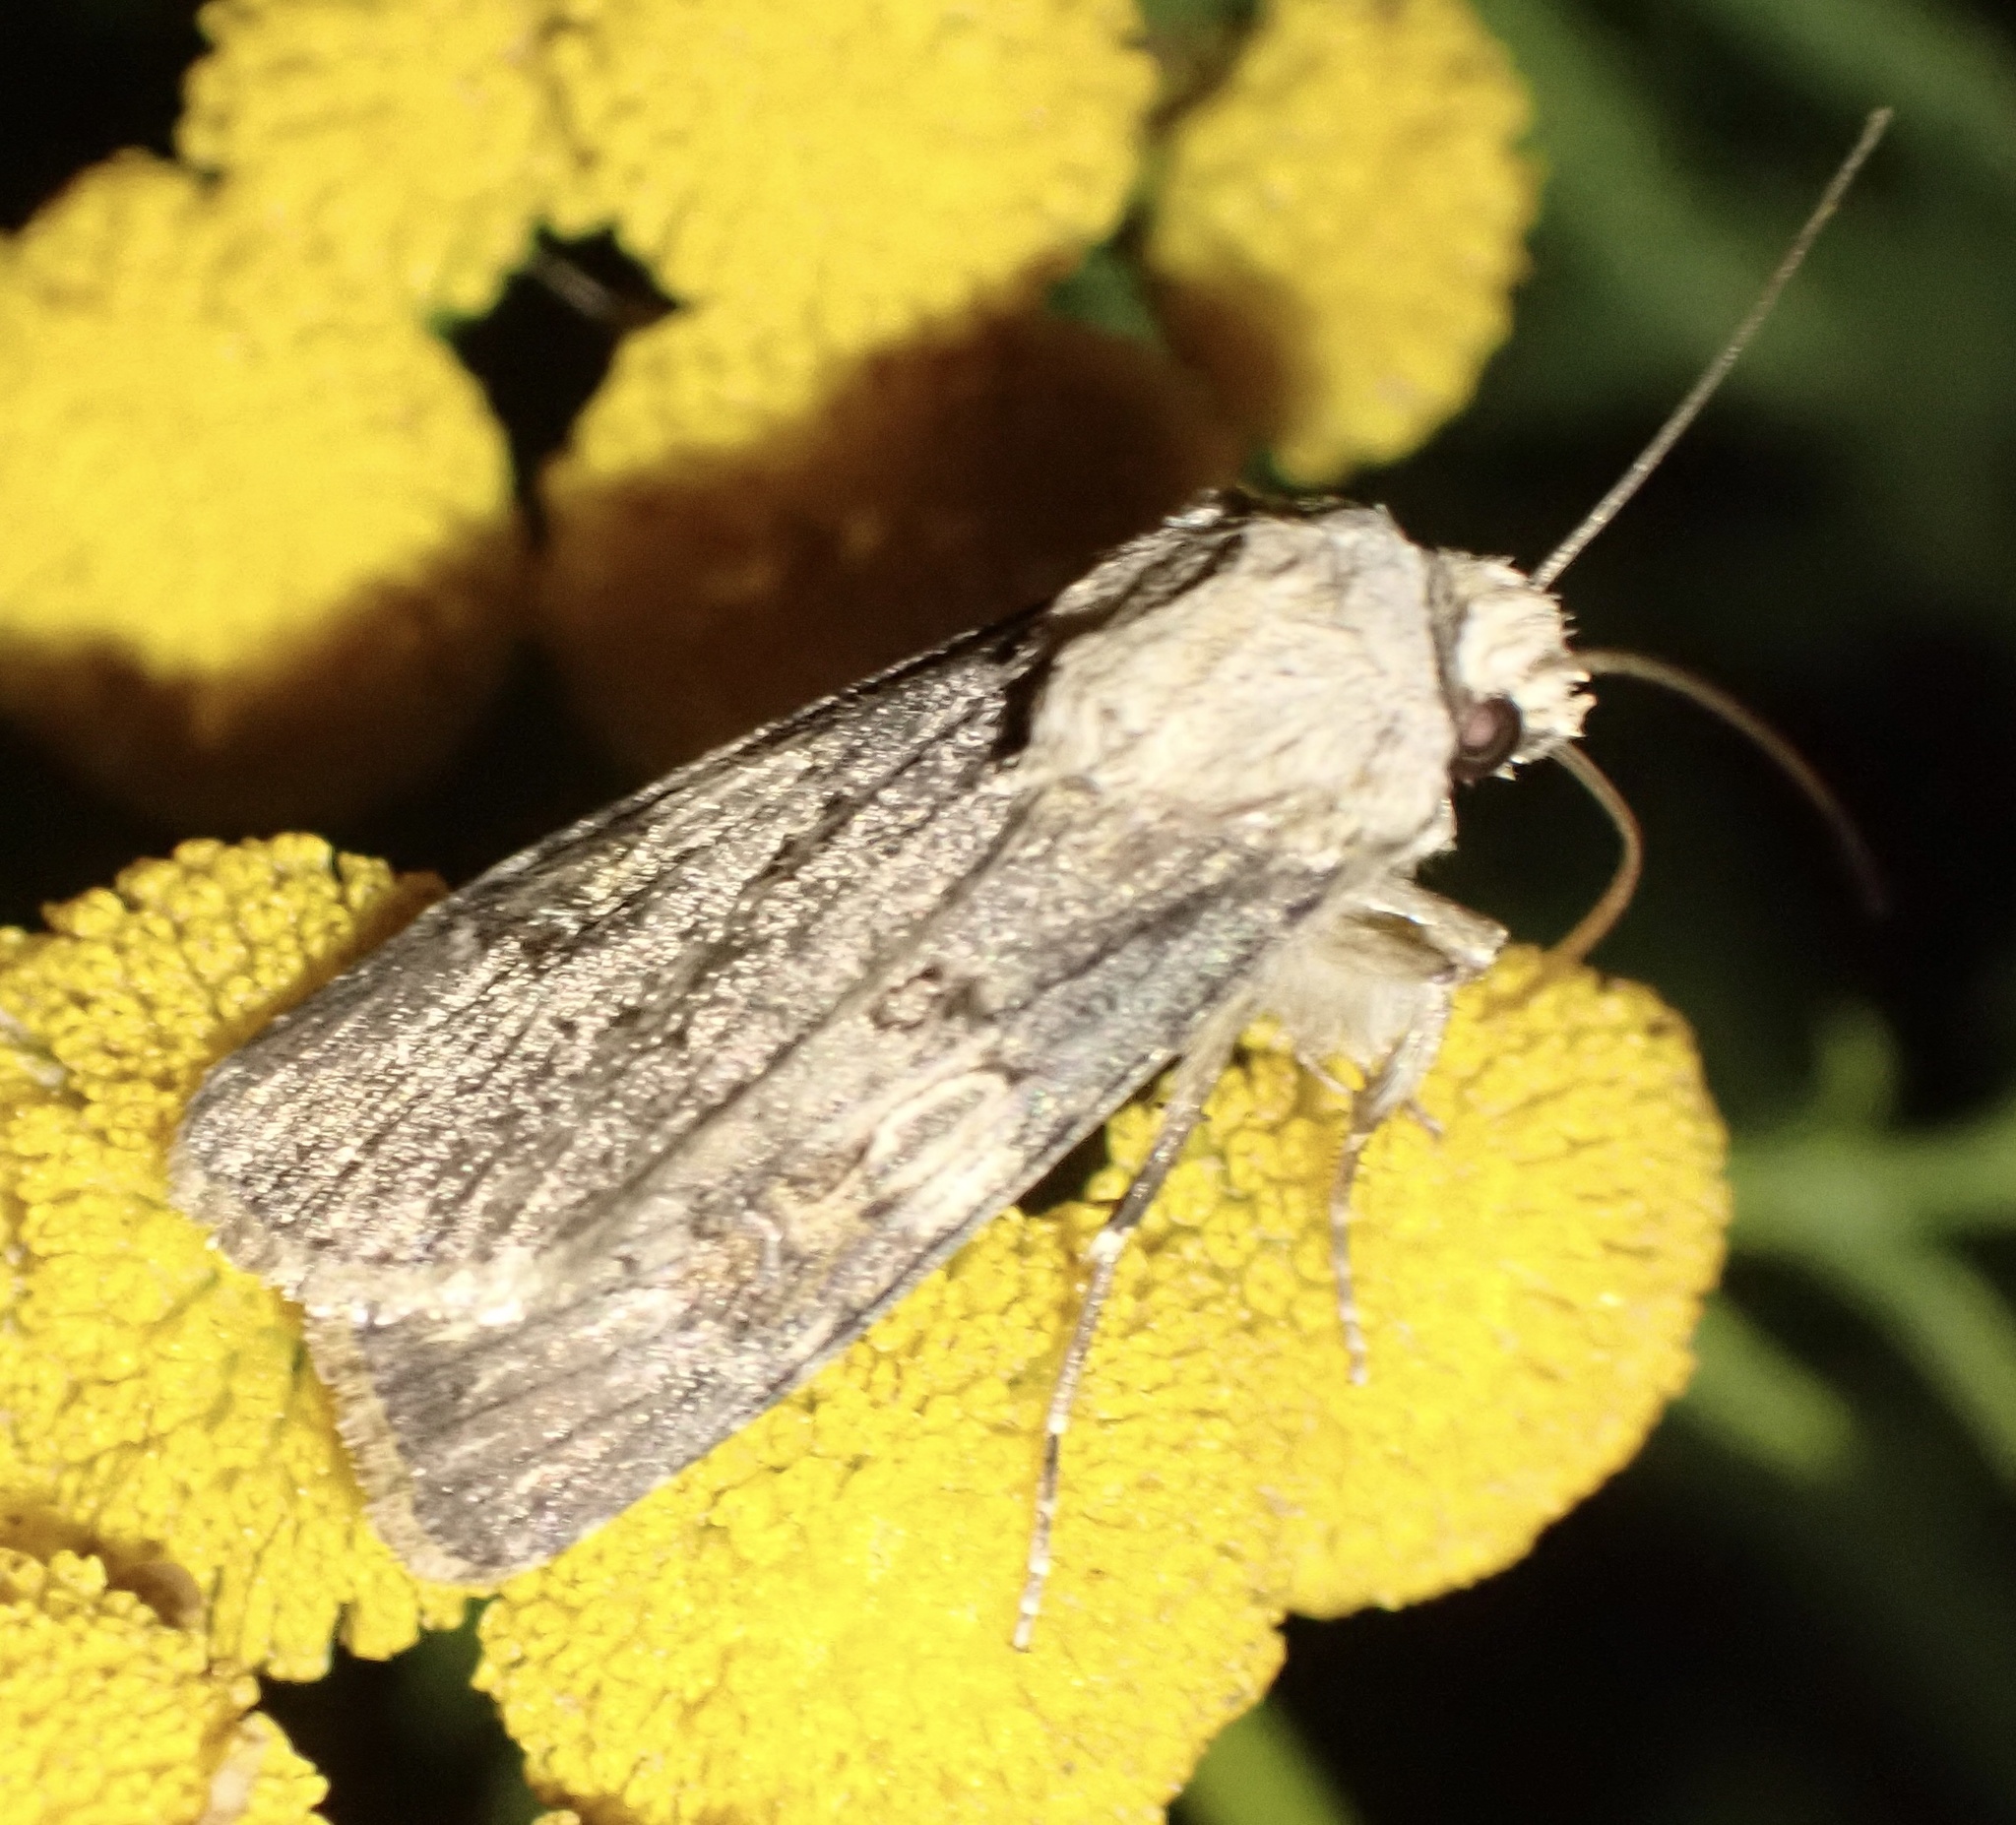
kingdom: Animalia
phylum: Arthropoda
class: Insecta
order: Lepidoptera
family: Noctuidae
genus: Agrotis
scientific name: Agrotis puta
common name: Shuttle-shaped dart
